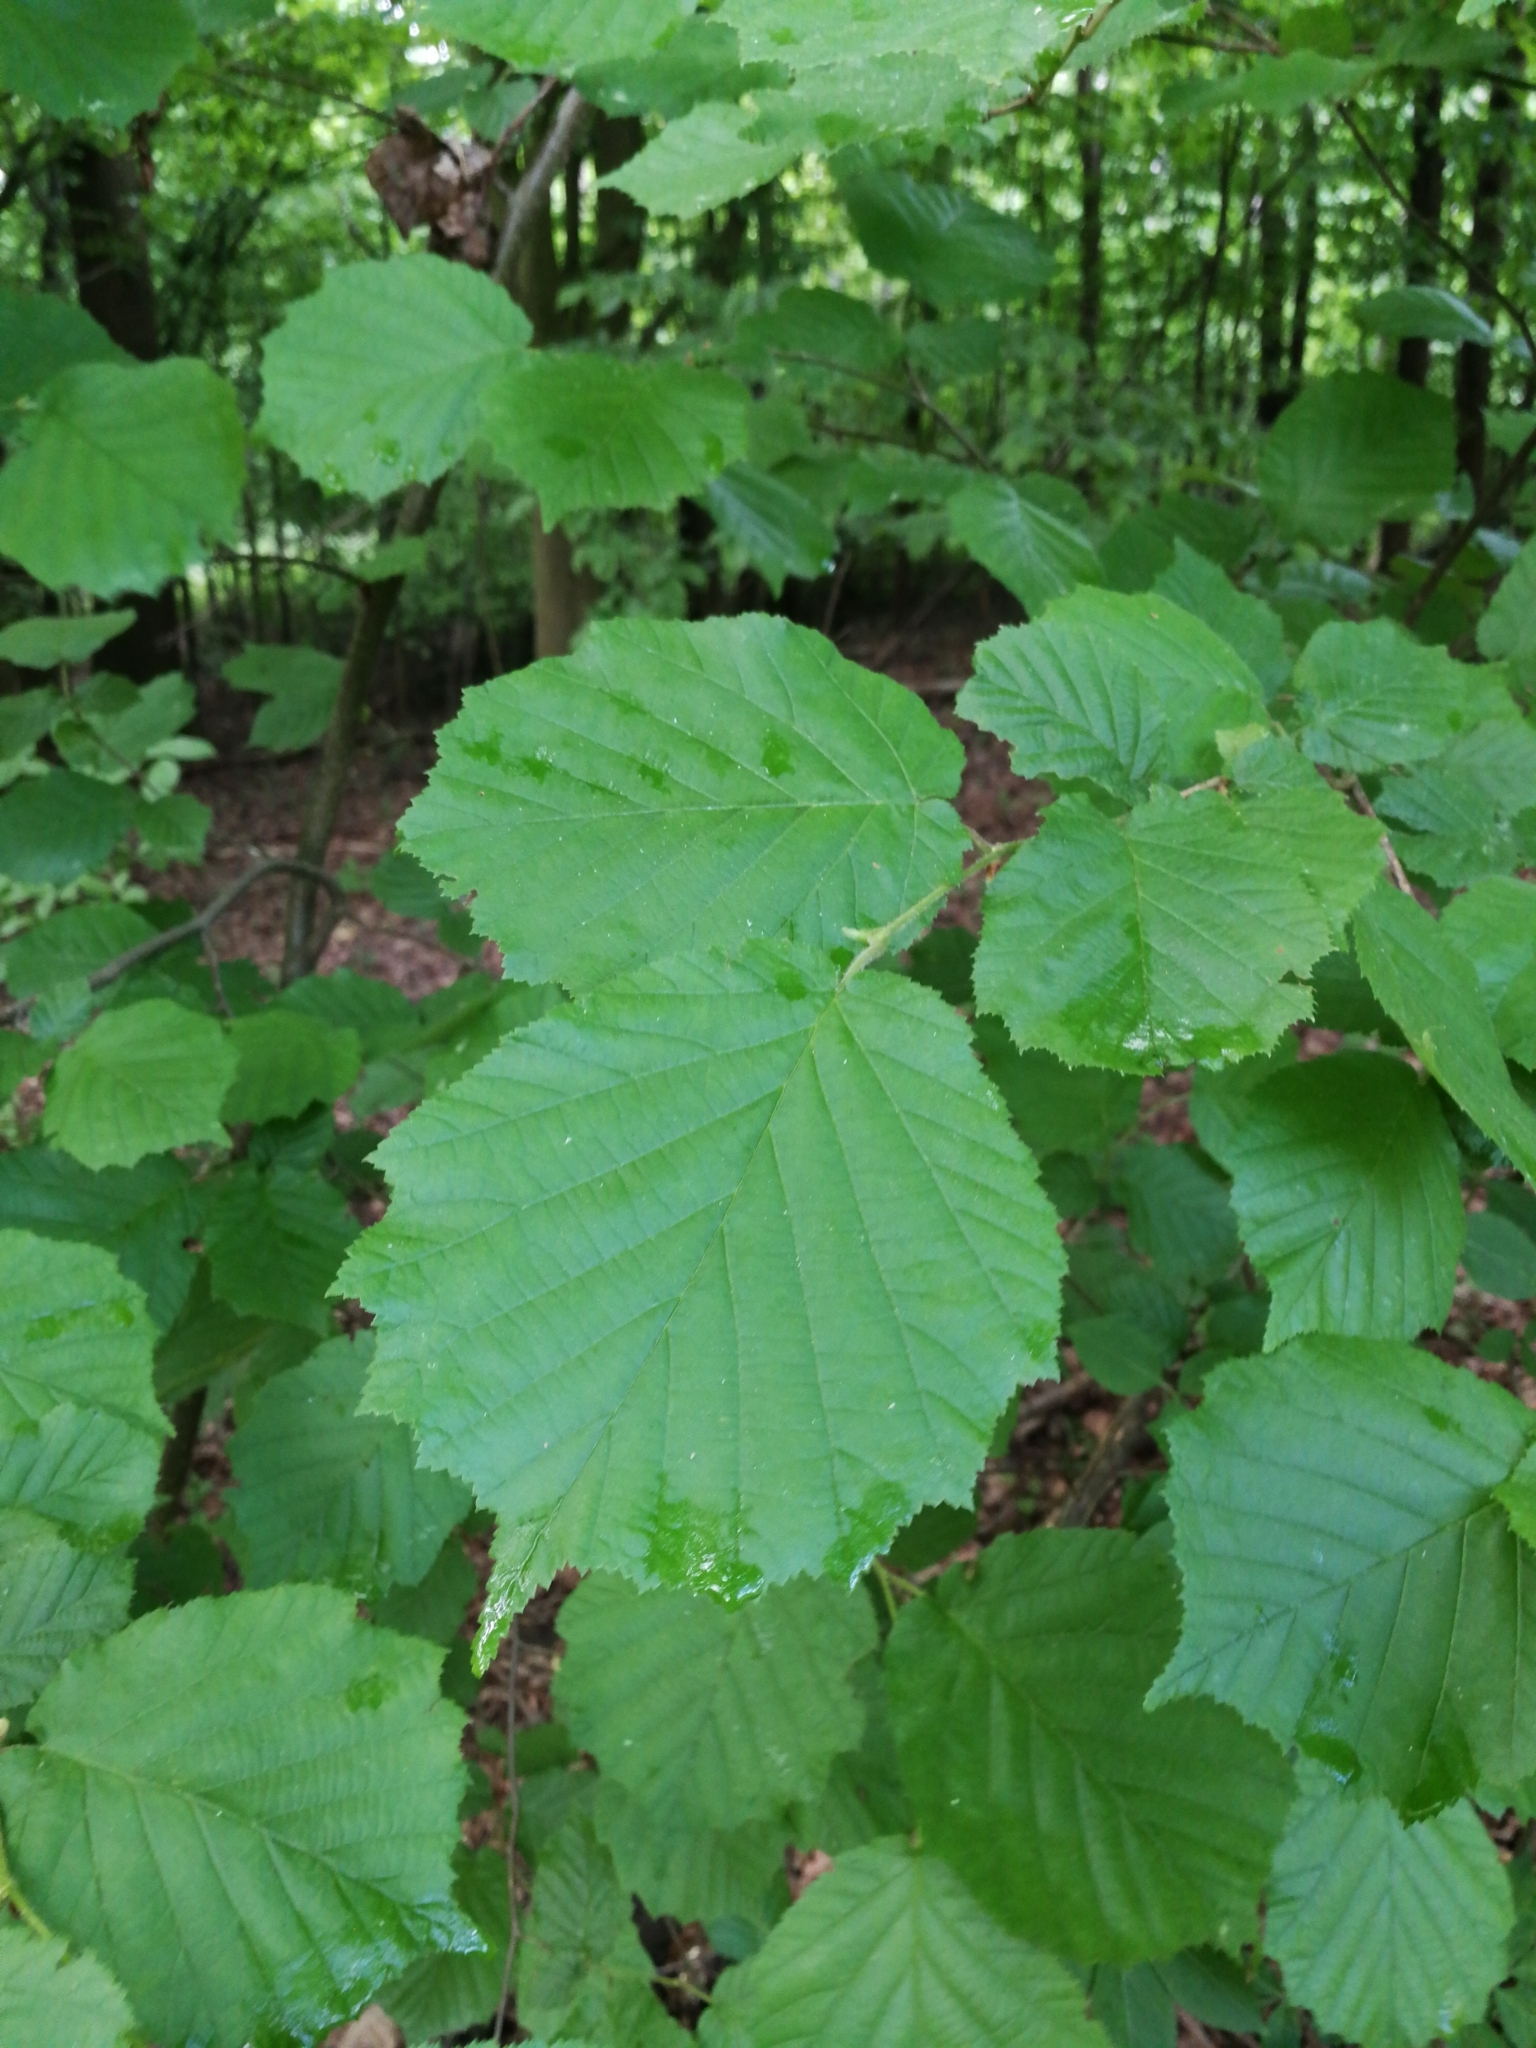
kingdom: Plantae
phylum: Tracheophyta
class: Magnoliopsida
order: Fagales
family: Betulaceae
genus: Corylus
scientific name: Corylus avellana
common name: European hazel
